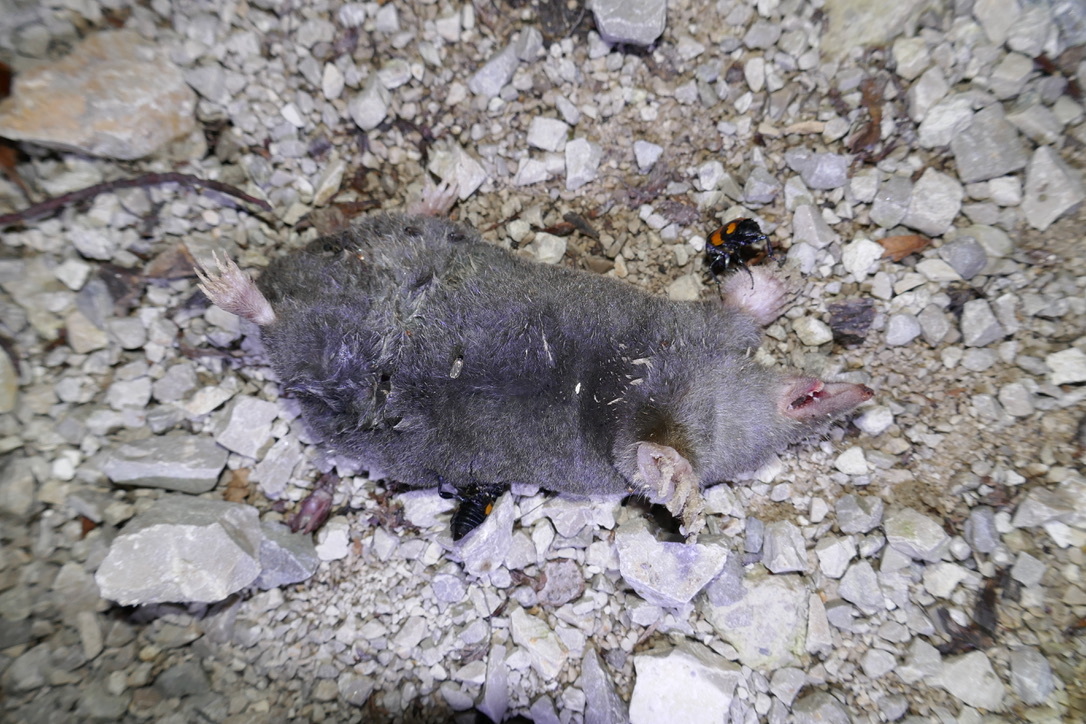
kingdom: Animalia
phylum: Chordata
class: Mammalia
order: Soricomorpha
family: Talpidae
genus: Talpa
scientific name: Talpa europaea
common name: European mole
